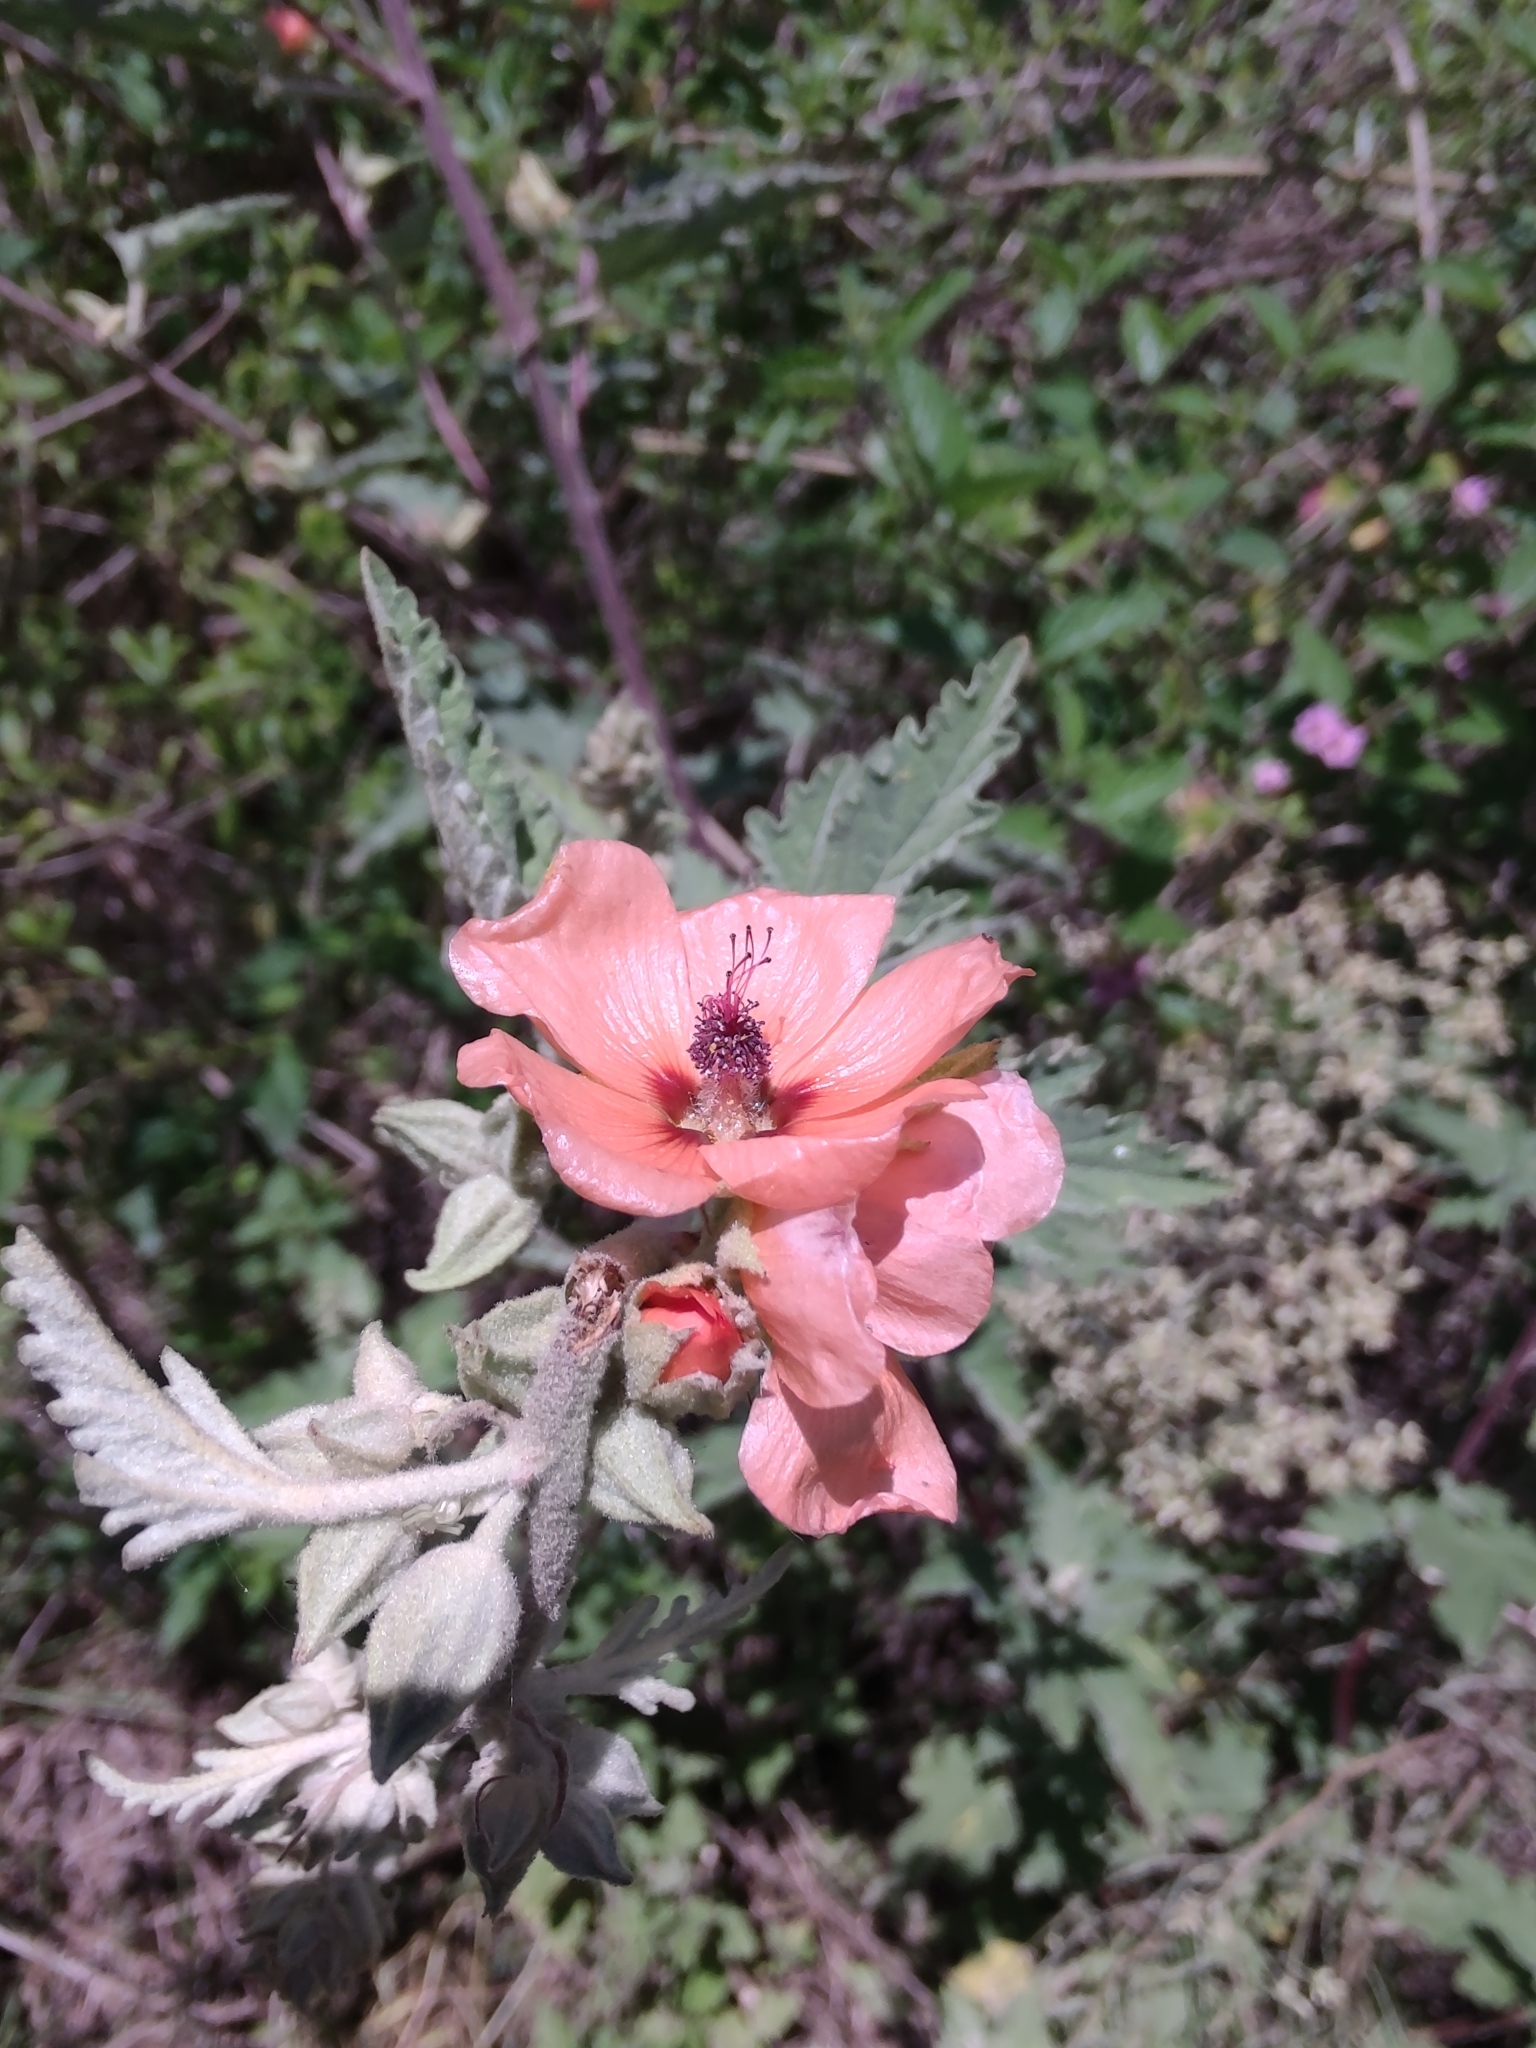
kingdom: Plantae
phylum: Tracheophyta
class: Magnoliopsida
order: Malvales
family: Malvaceae
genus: Sphaeralcea
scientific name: Sphaeralcea bonariensis
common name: Latin globemallow
